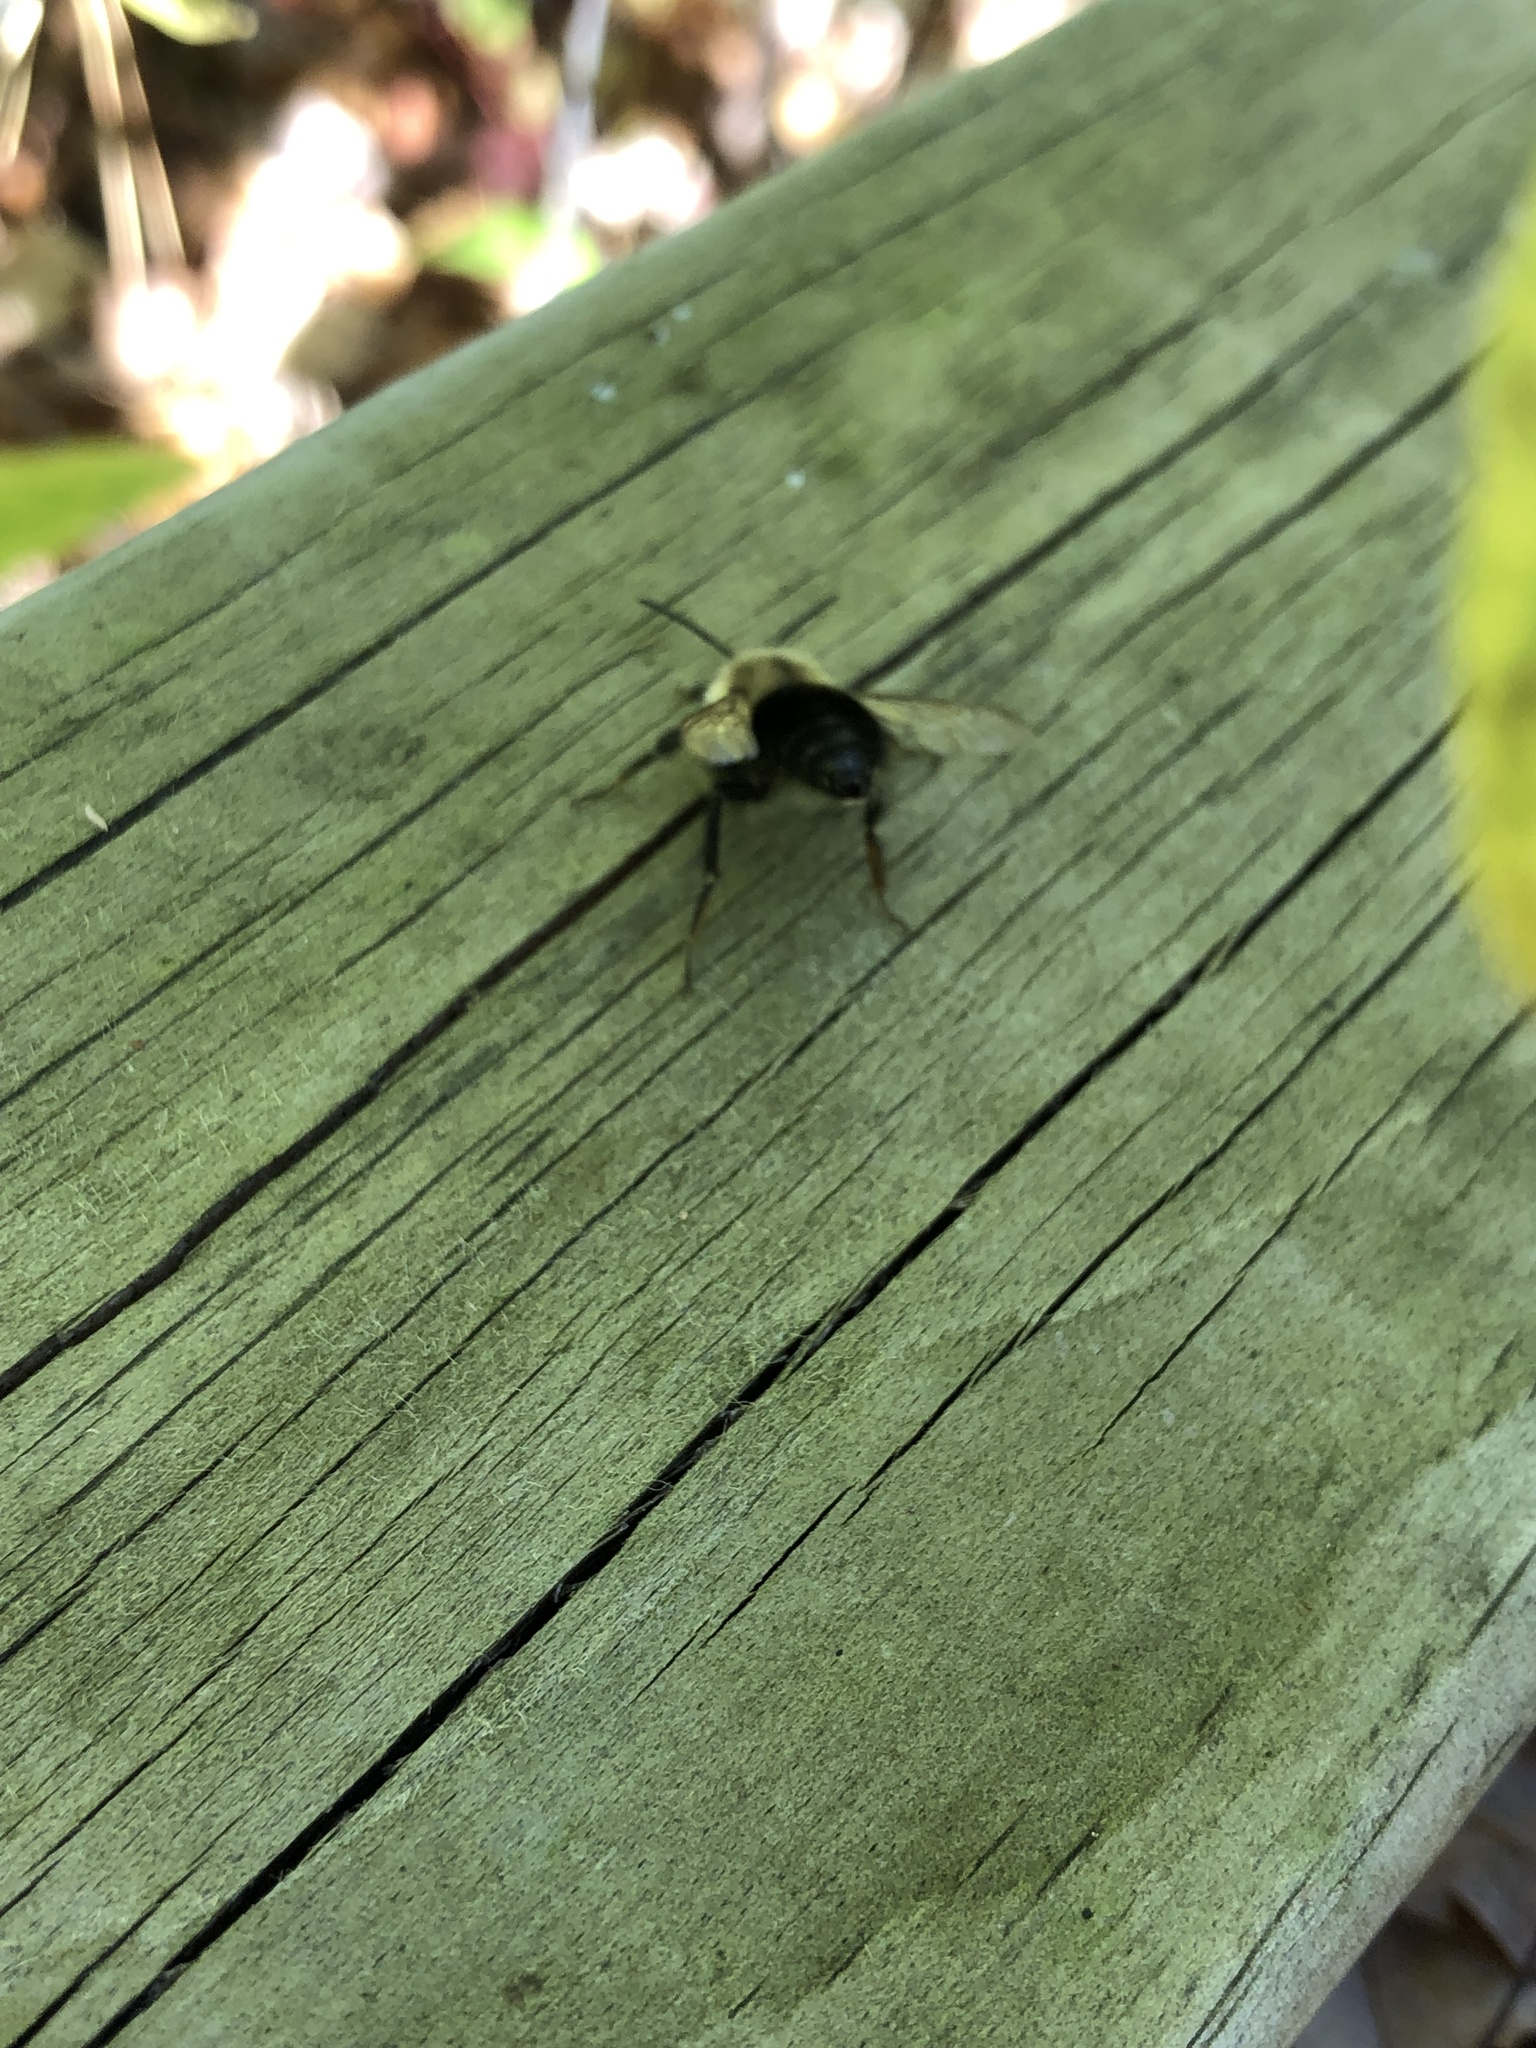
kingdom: Animalia
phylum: Arthropoda
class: Insecta
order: Hymenoptera
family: Apidae
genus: Bombus
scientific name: Bombus impatiens
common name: Common eastern bumble bee
